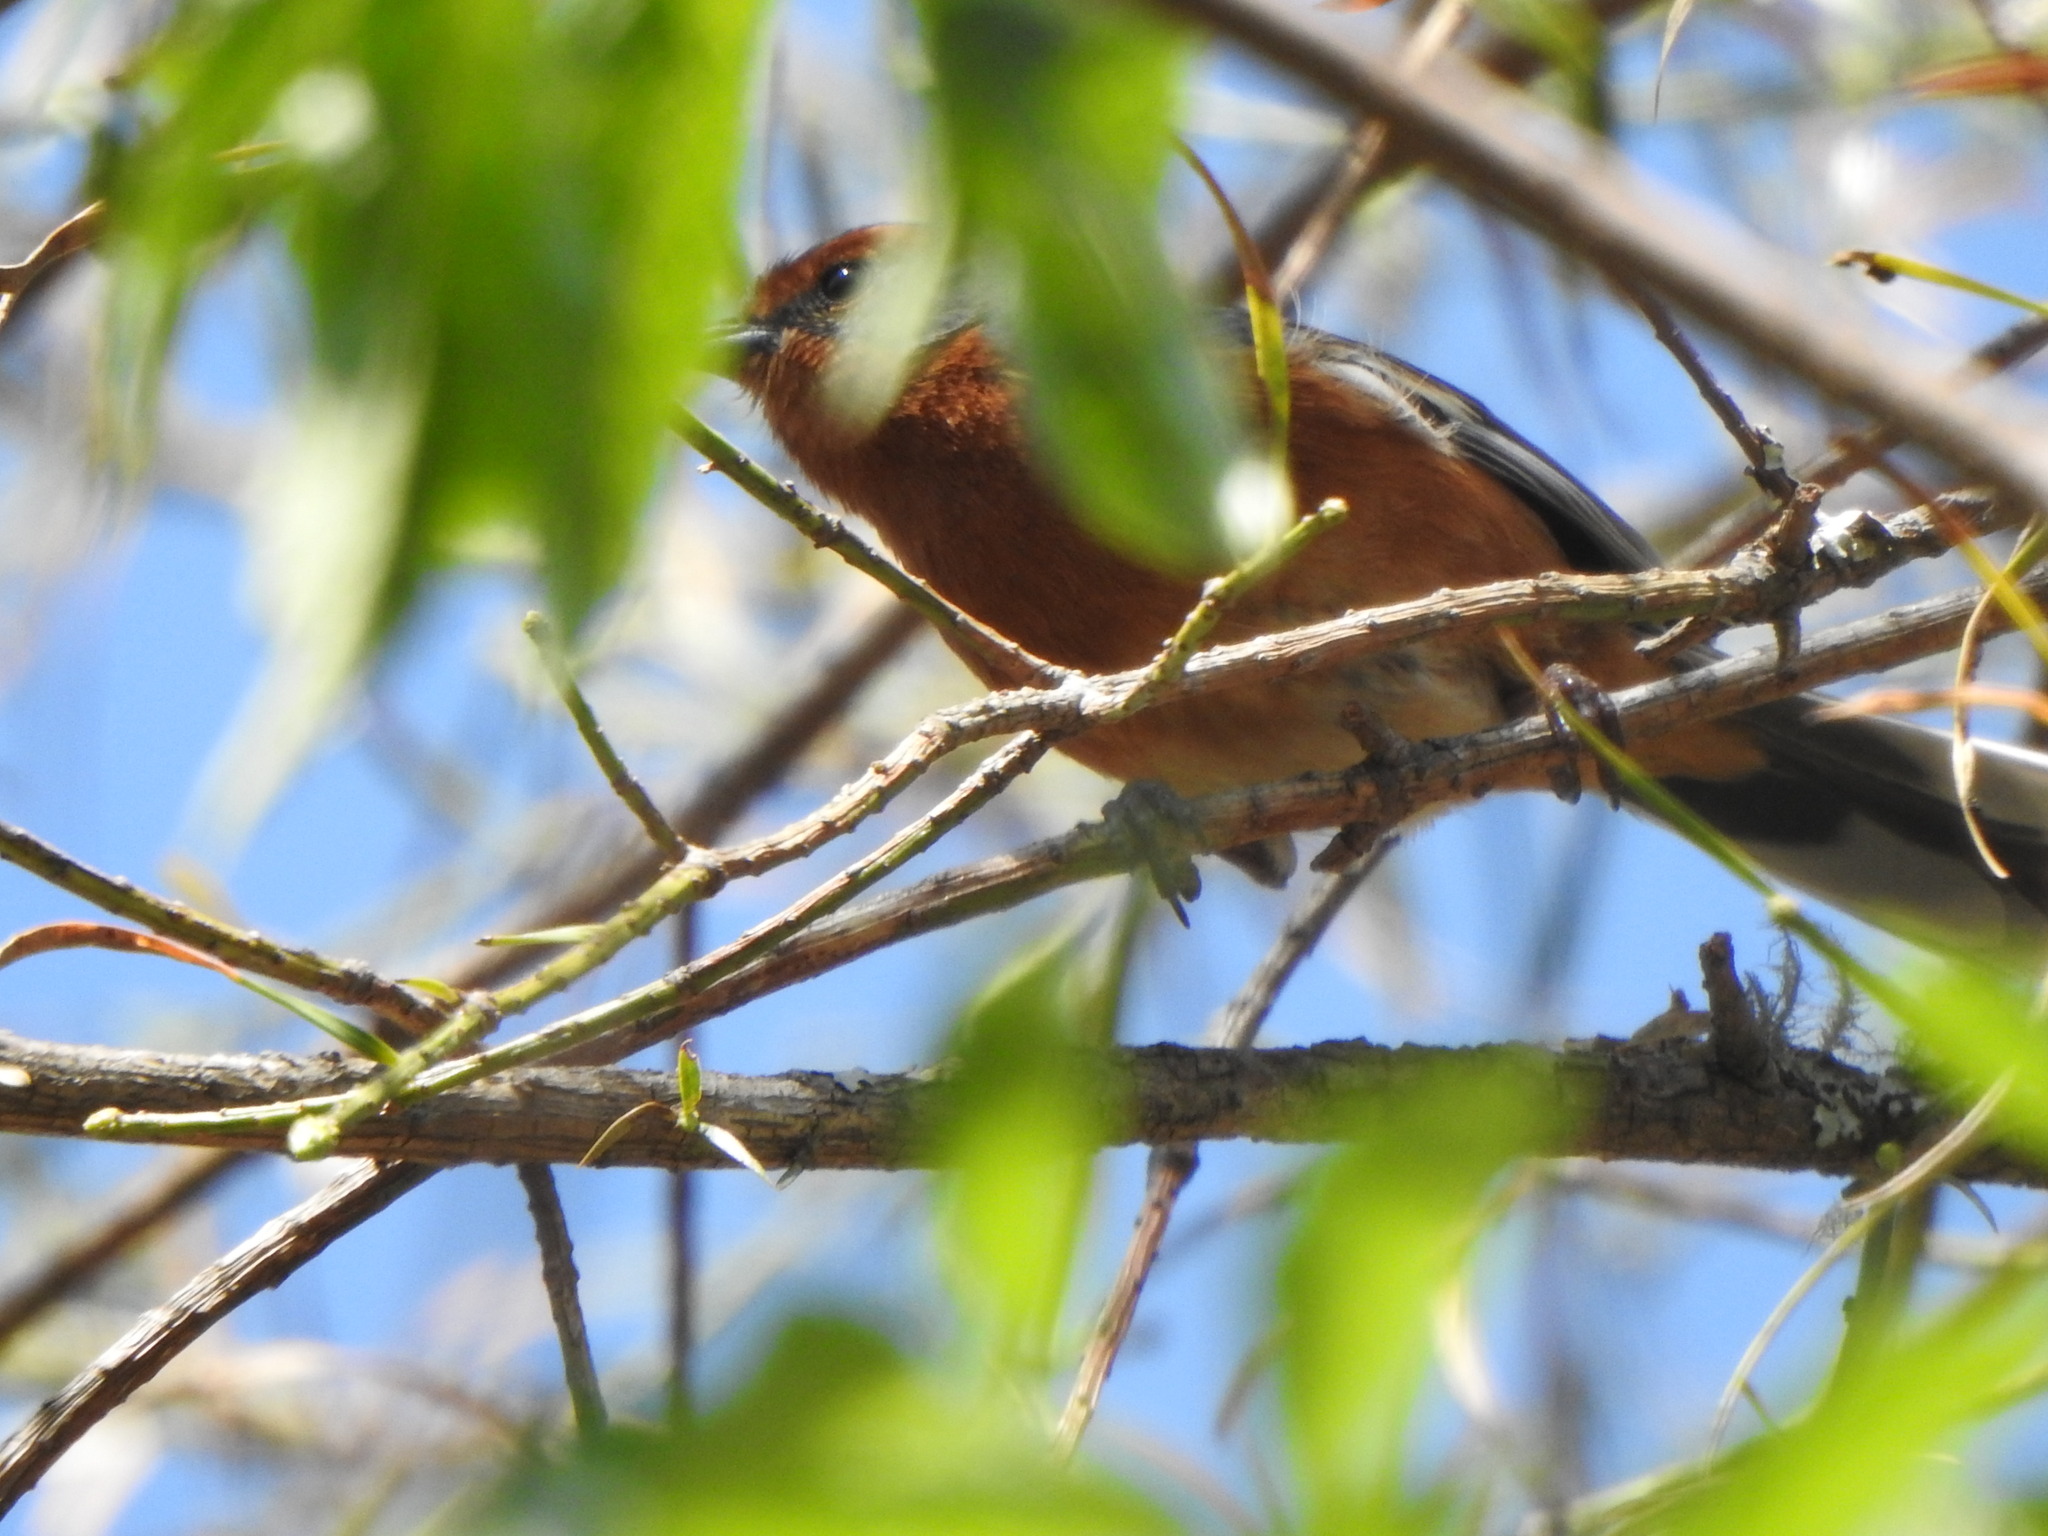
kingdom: Animalia
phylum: Chordata
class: Aves
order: Passeriformes
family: Thraupidae
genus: Microspingus
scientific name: Microspingus erythrophrys
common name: Rusty-browed warbling-finch
